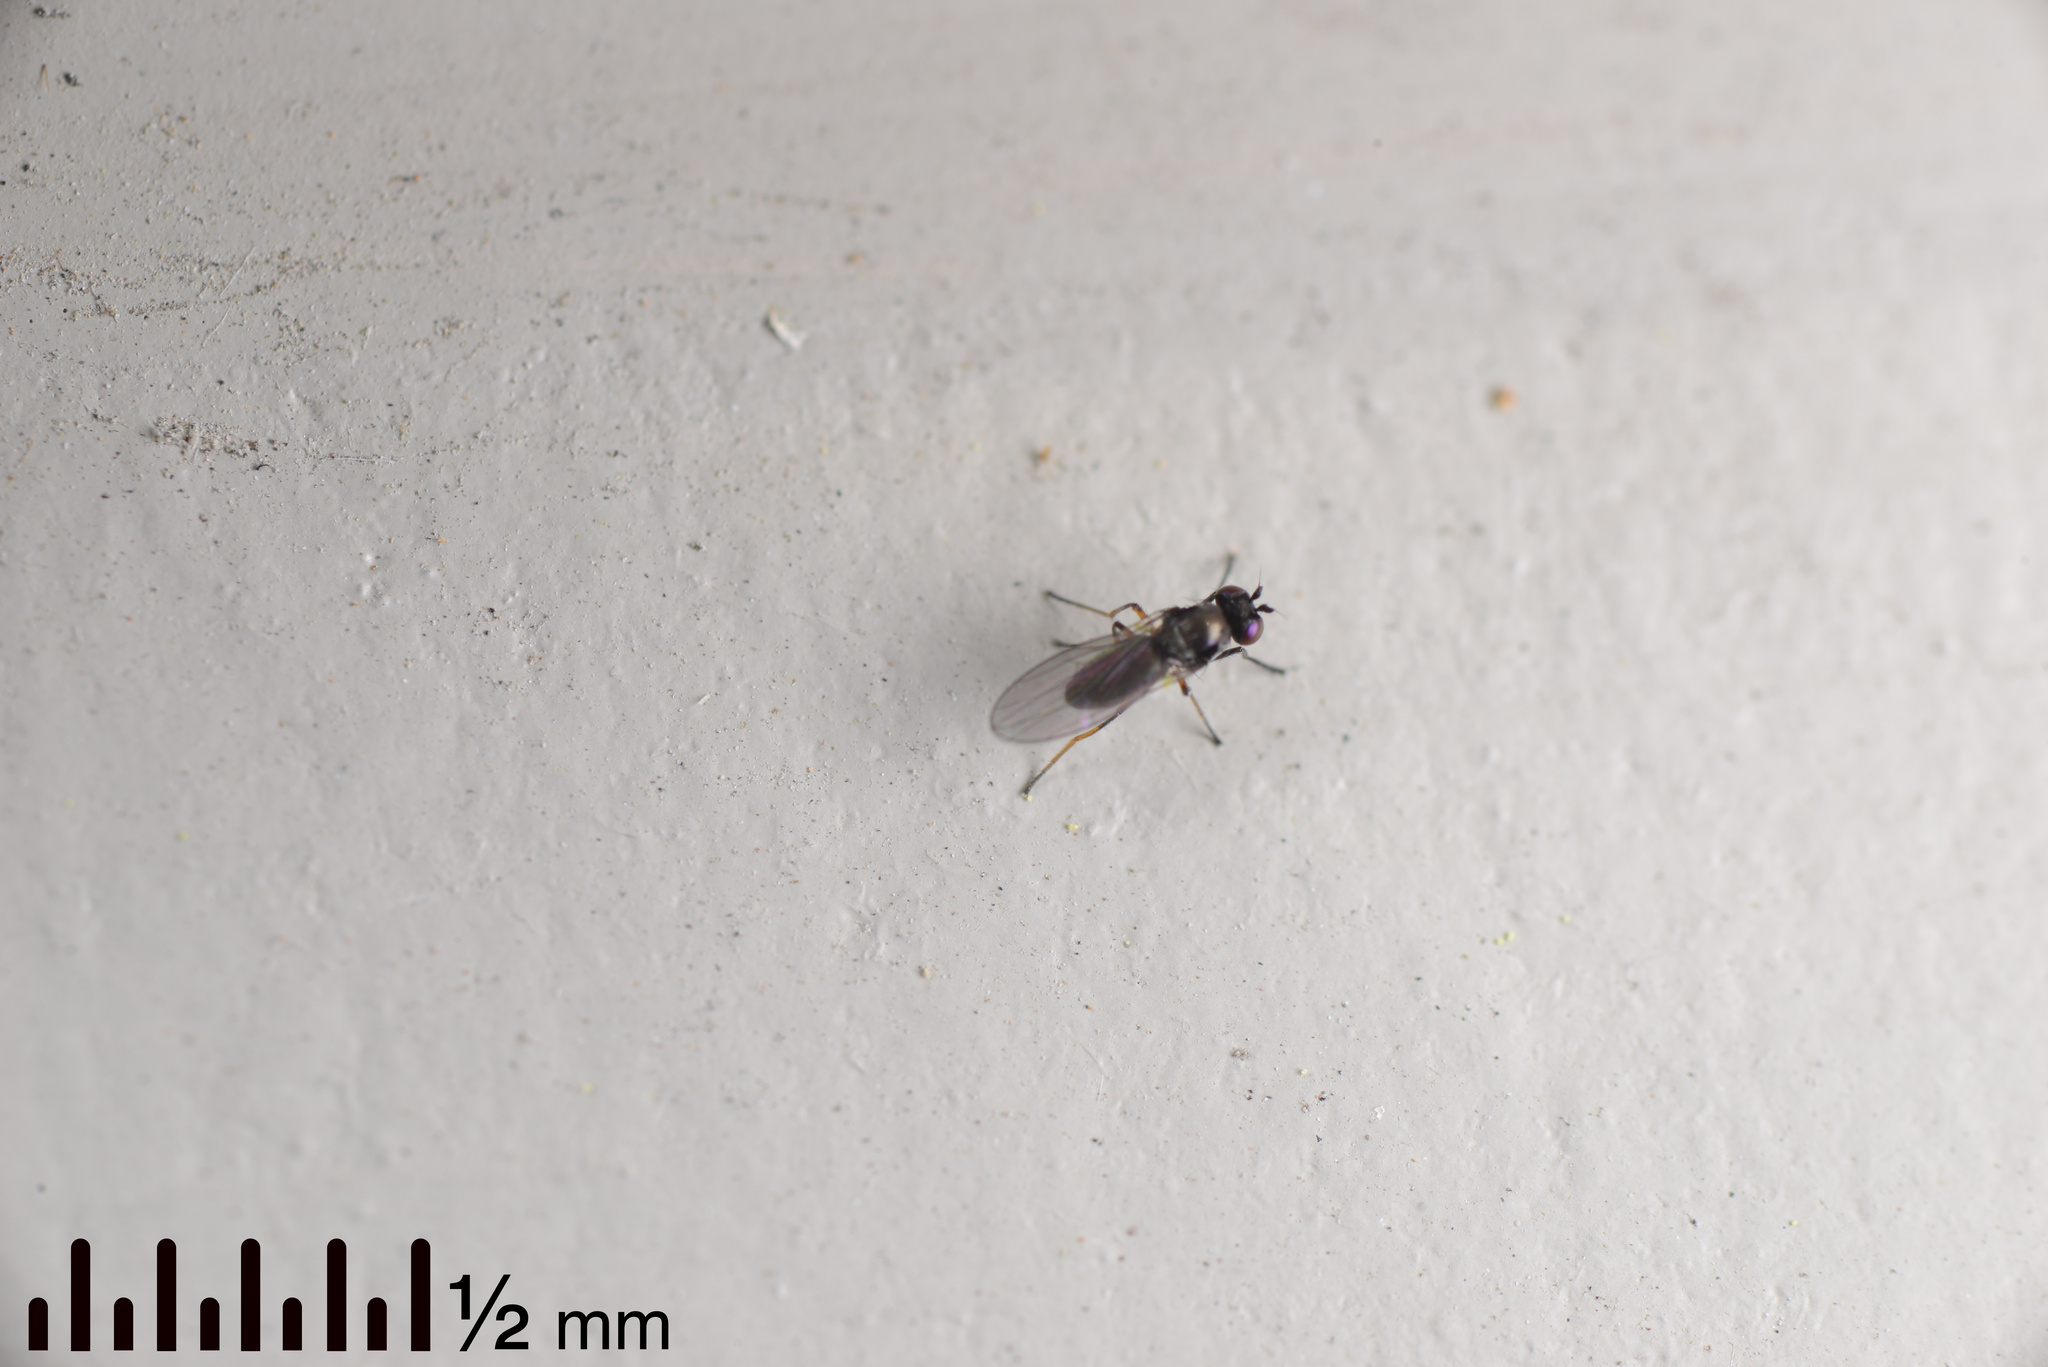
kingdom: Animalia
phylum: Arthropoda
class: Insecta
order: Diptera
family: Ephydridae
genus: Hydrellia
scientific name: Hydrellia tritici
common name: Shore fly
